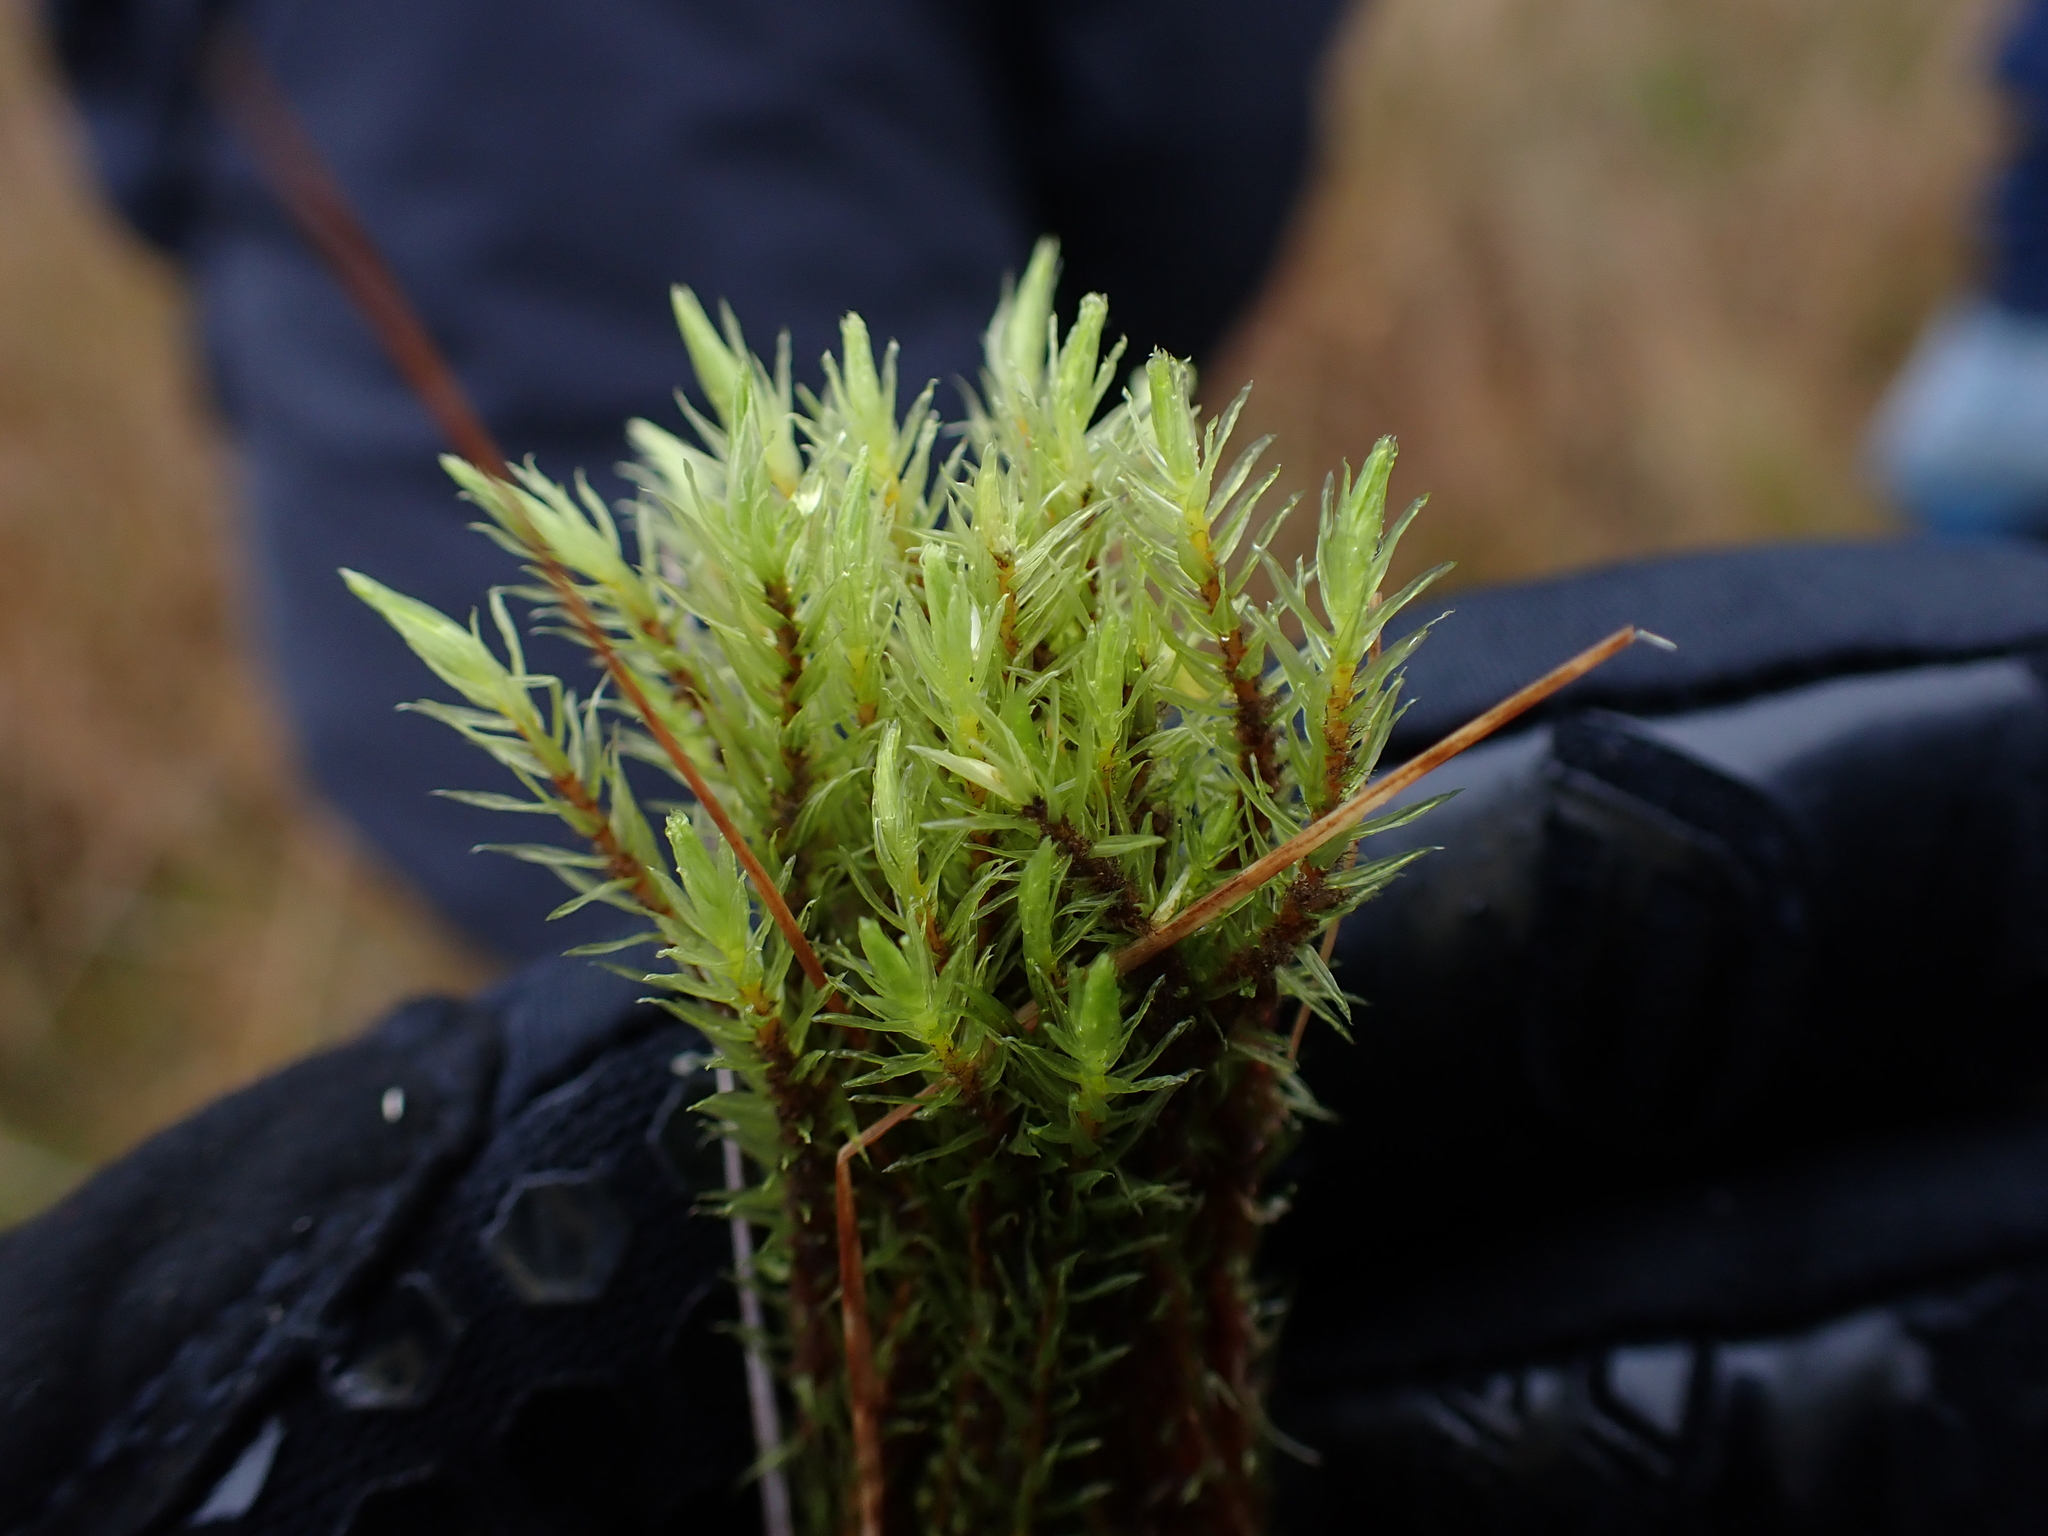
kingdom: Plantae
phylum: Bryophyta
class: Bryopsida
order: Aulacomniales
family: Aulacomniaceae
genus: Aulacomnium
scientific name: Aulacomnium palustre
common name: Bog groove-moss
